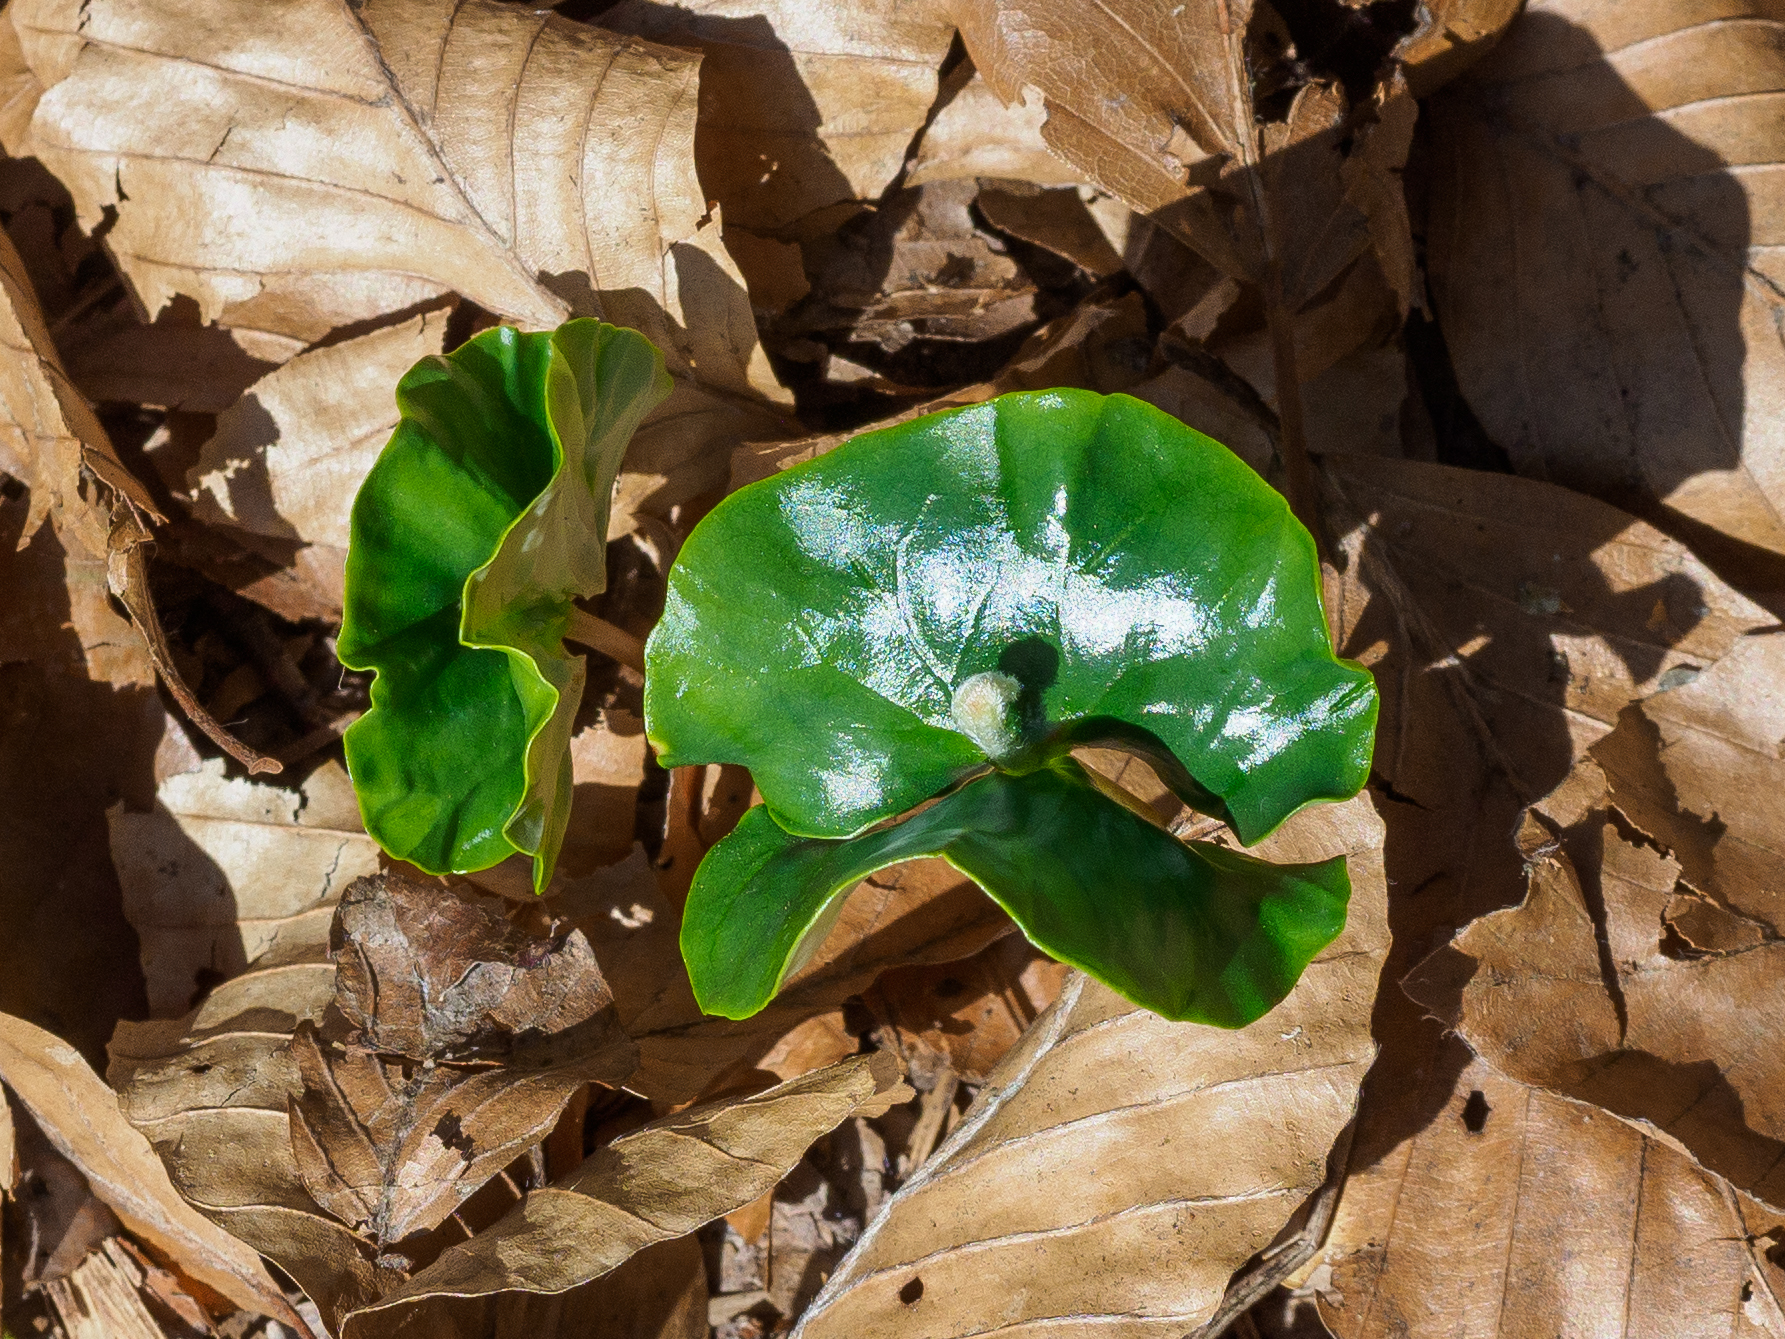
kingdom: Plantae
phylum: Tracheophyta
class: Magnoliopsida
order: Fagales
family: Fagaceae
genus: Fagus
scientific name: Fagus sylvatica
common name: Beech
